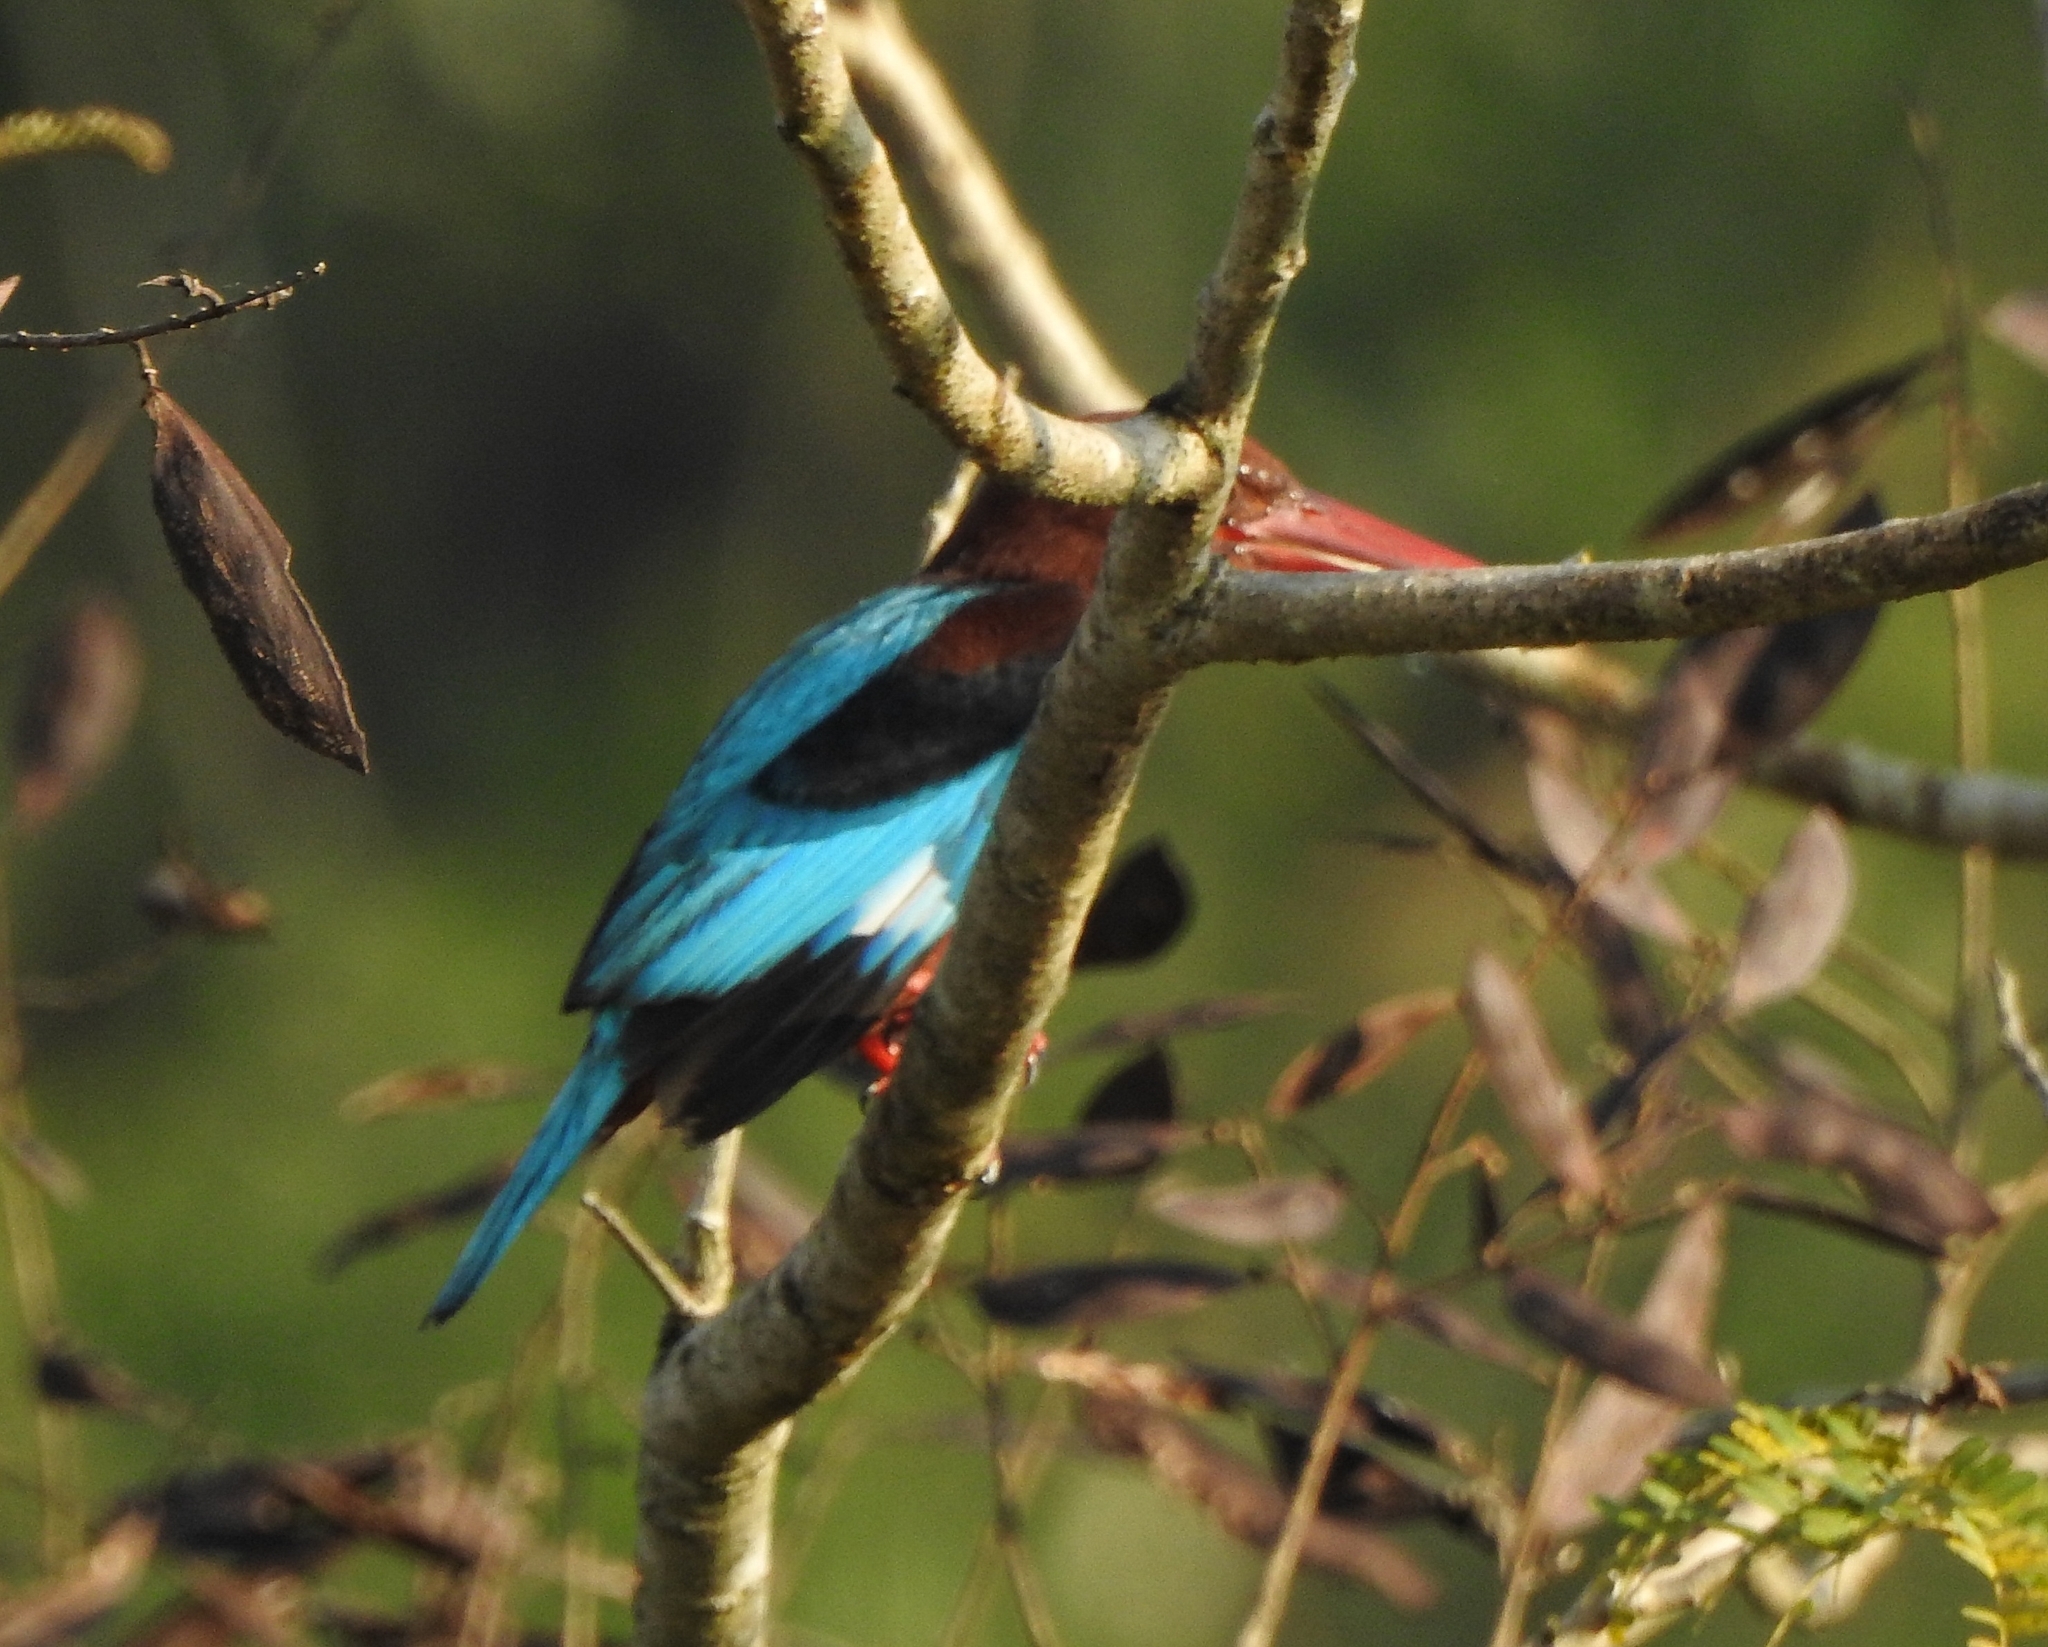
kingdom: Animalia
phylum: Chordata
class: Aves
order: Coraciiformes
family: Alcedinidae
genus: Halcyon
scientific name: Halcyon smyrnensis
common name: White-throated kingfisher
